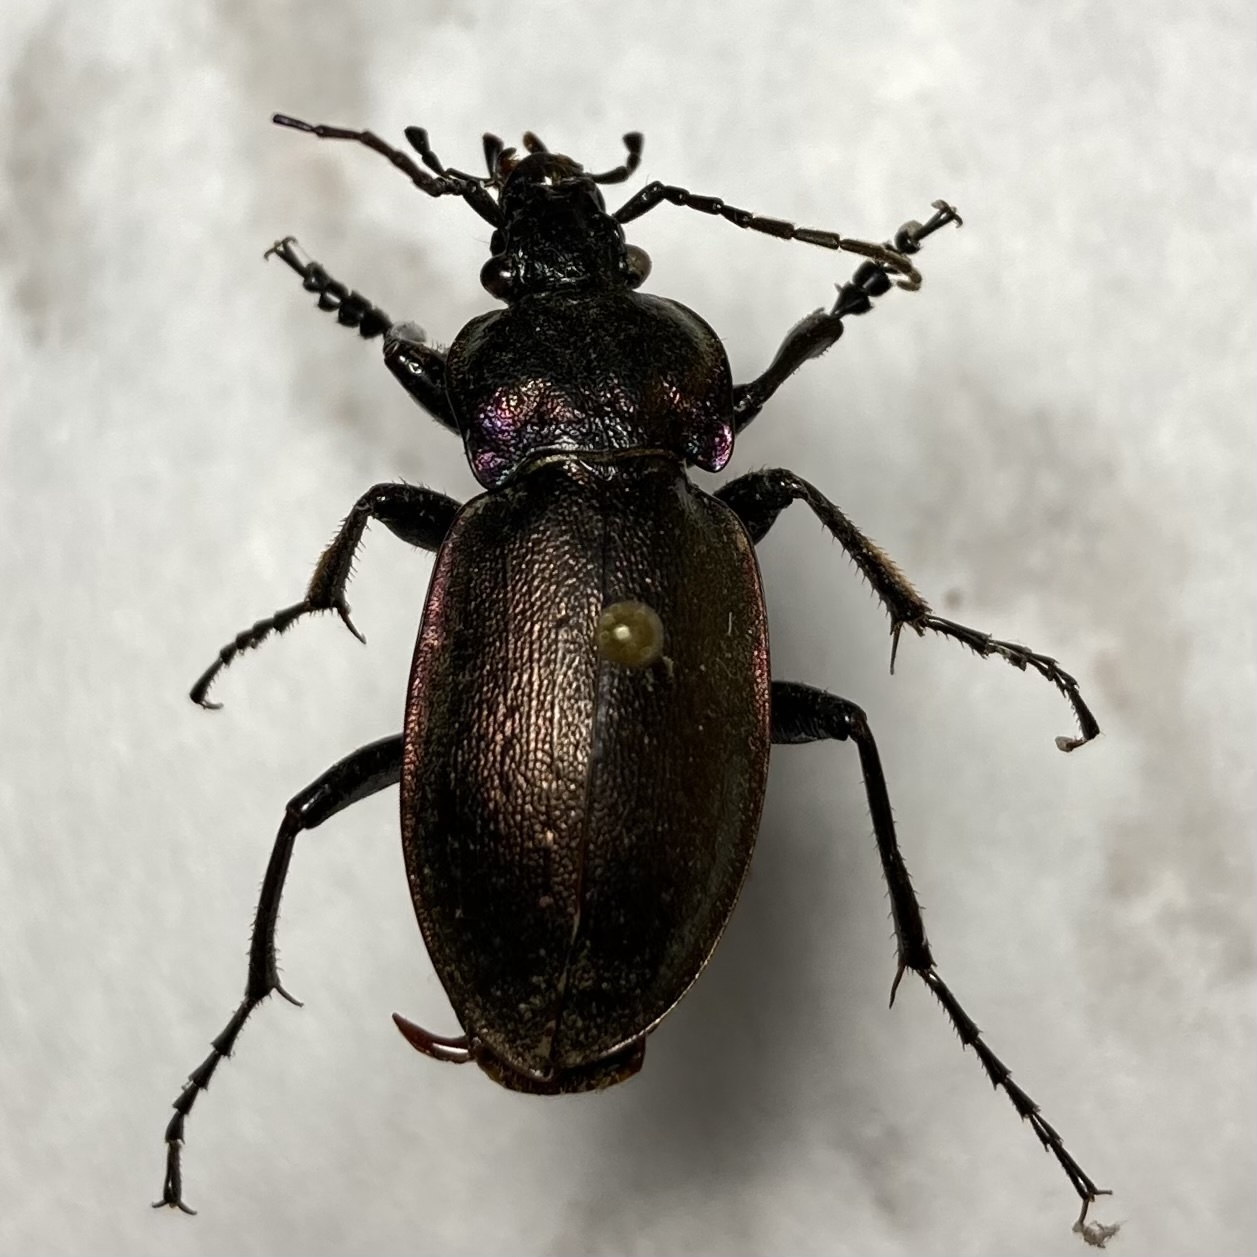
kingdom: Animalia
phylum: Arthropoda
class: Insecta
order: Coleoptera
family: Carabidae
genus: Carabus
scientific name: Carabus nemoralis
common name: European ground beetle
